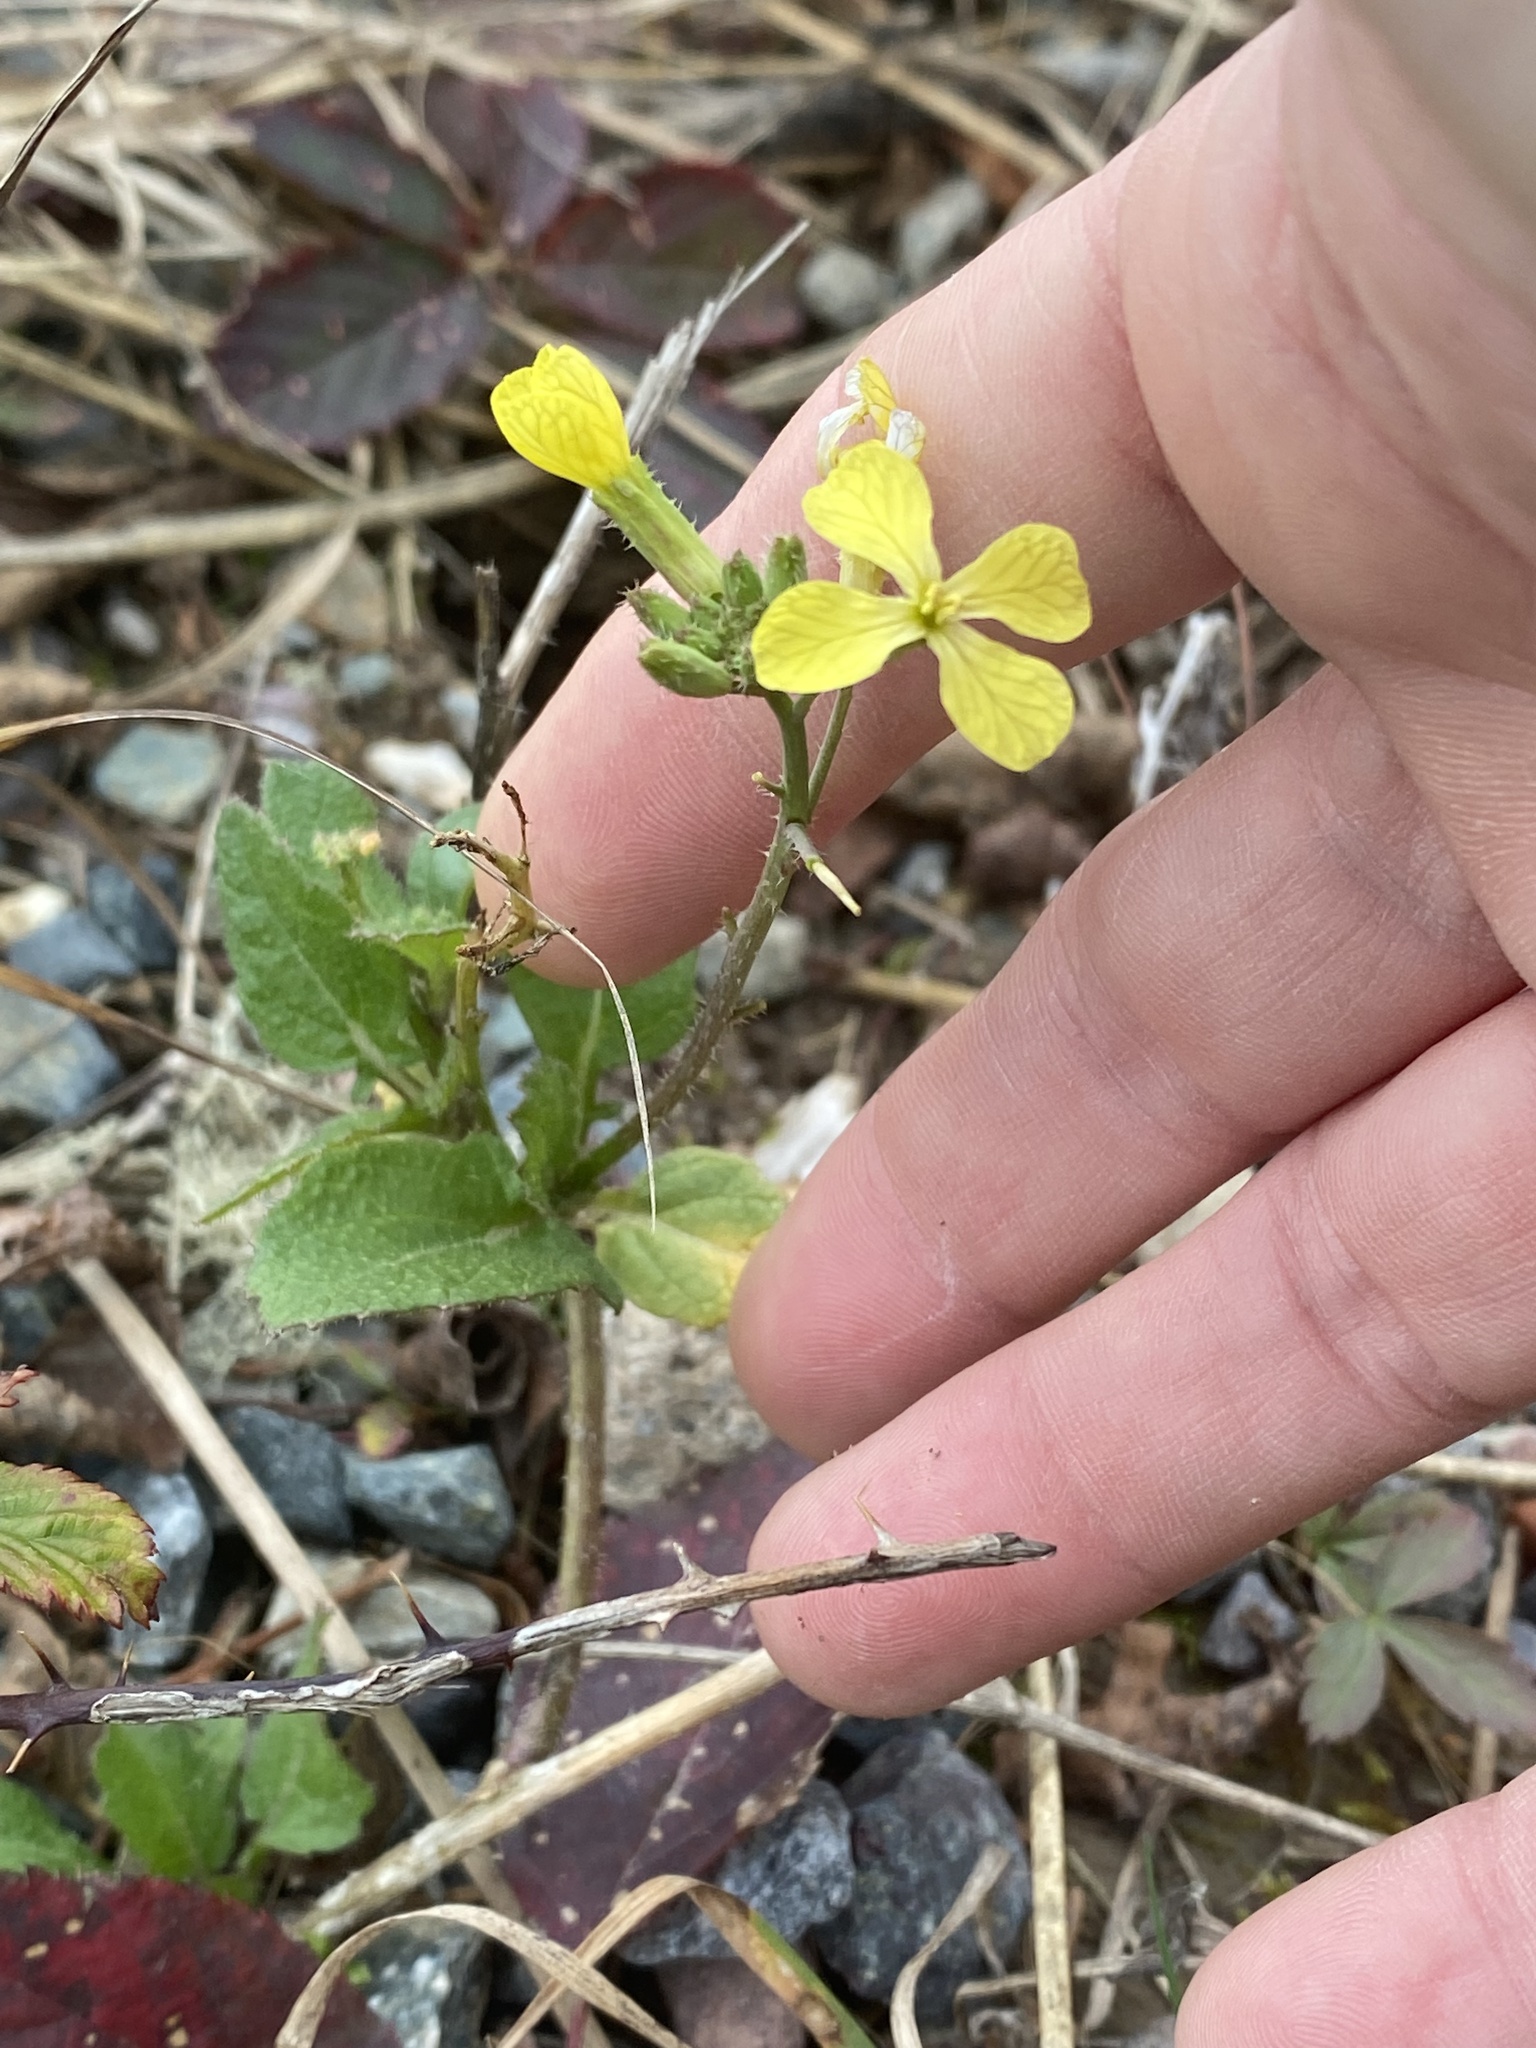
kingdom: Plantae
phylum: Tracheophyta
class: Magnoliopsida
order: Brassicales
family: Brassicaceae
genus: Raphanus
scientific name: Raphanus raphanistrum
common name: Wild radish
